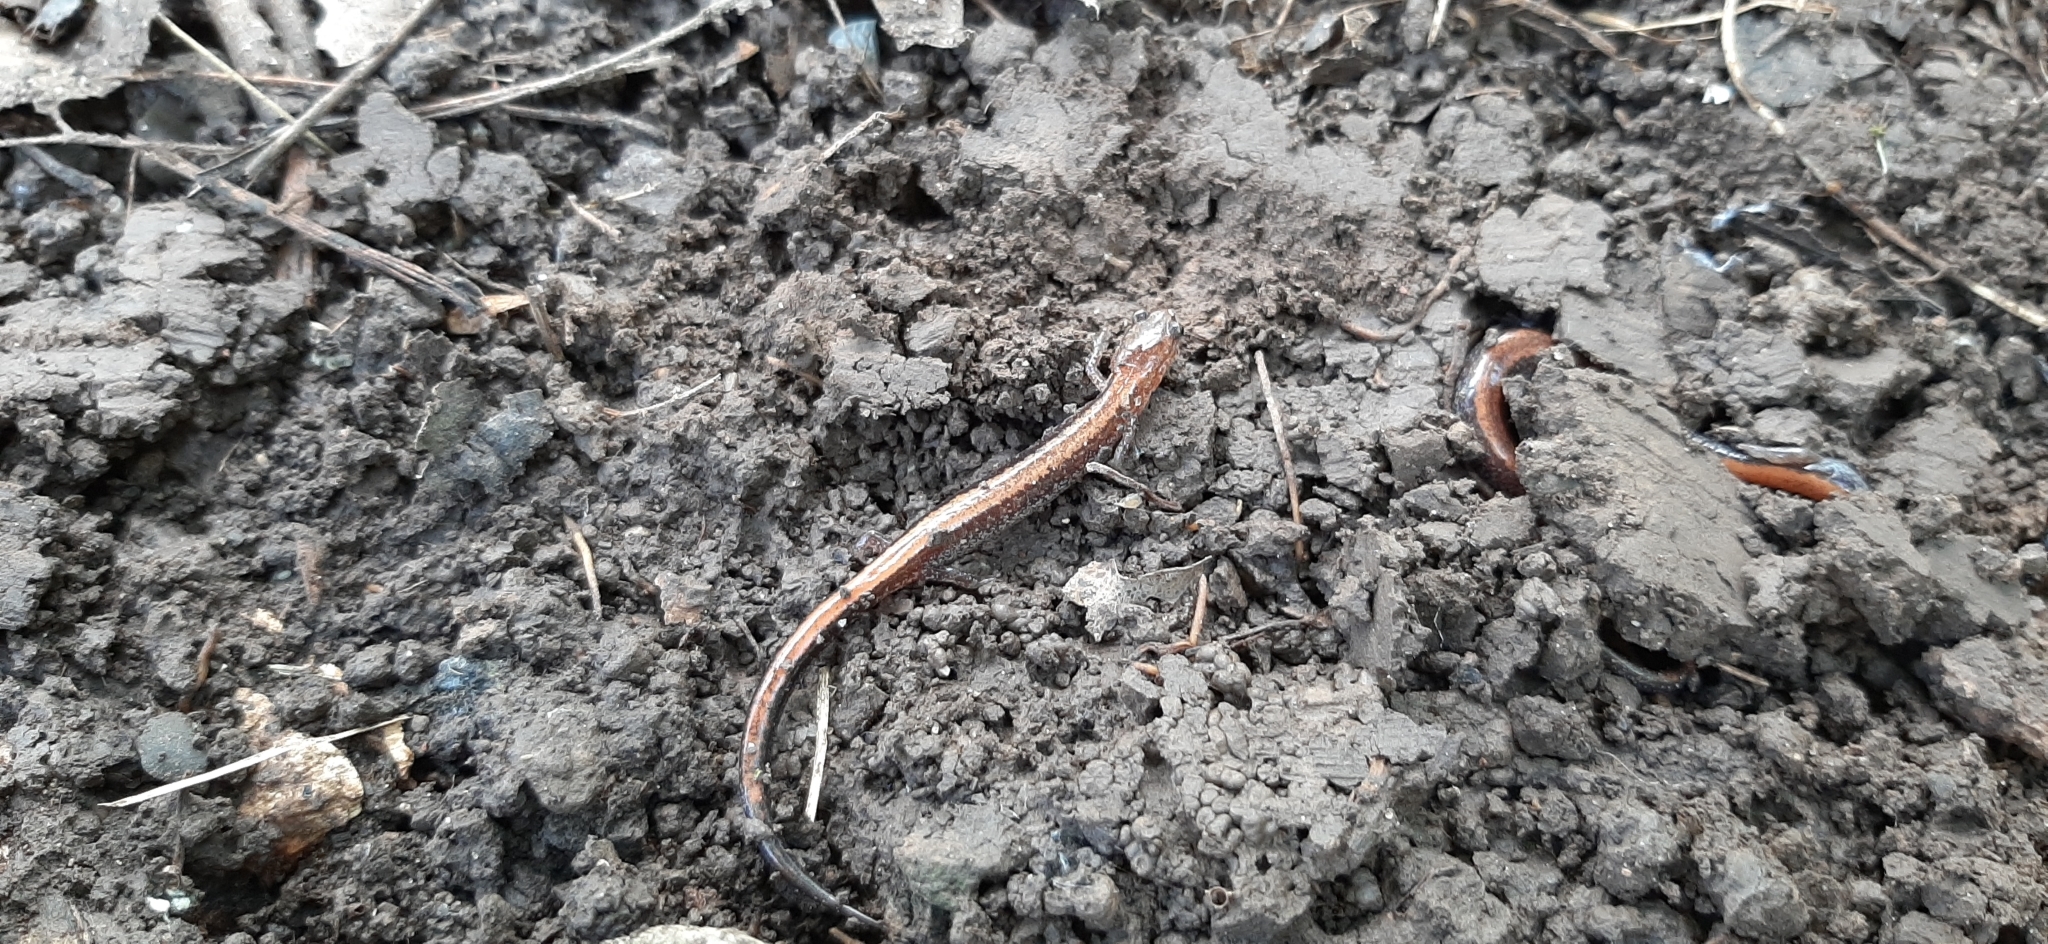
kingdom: Animalia
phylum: Chordata
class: Amphibia
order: Caudata
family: Plethodontidae
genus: Plethodon
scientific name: Plethodon cinereus
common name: Redback salamander
